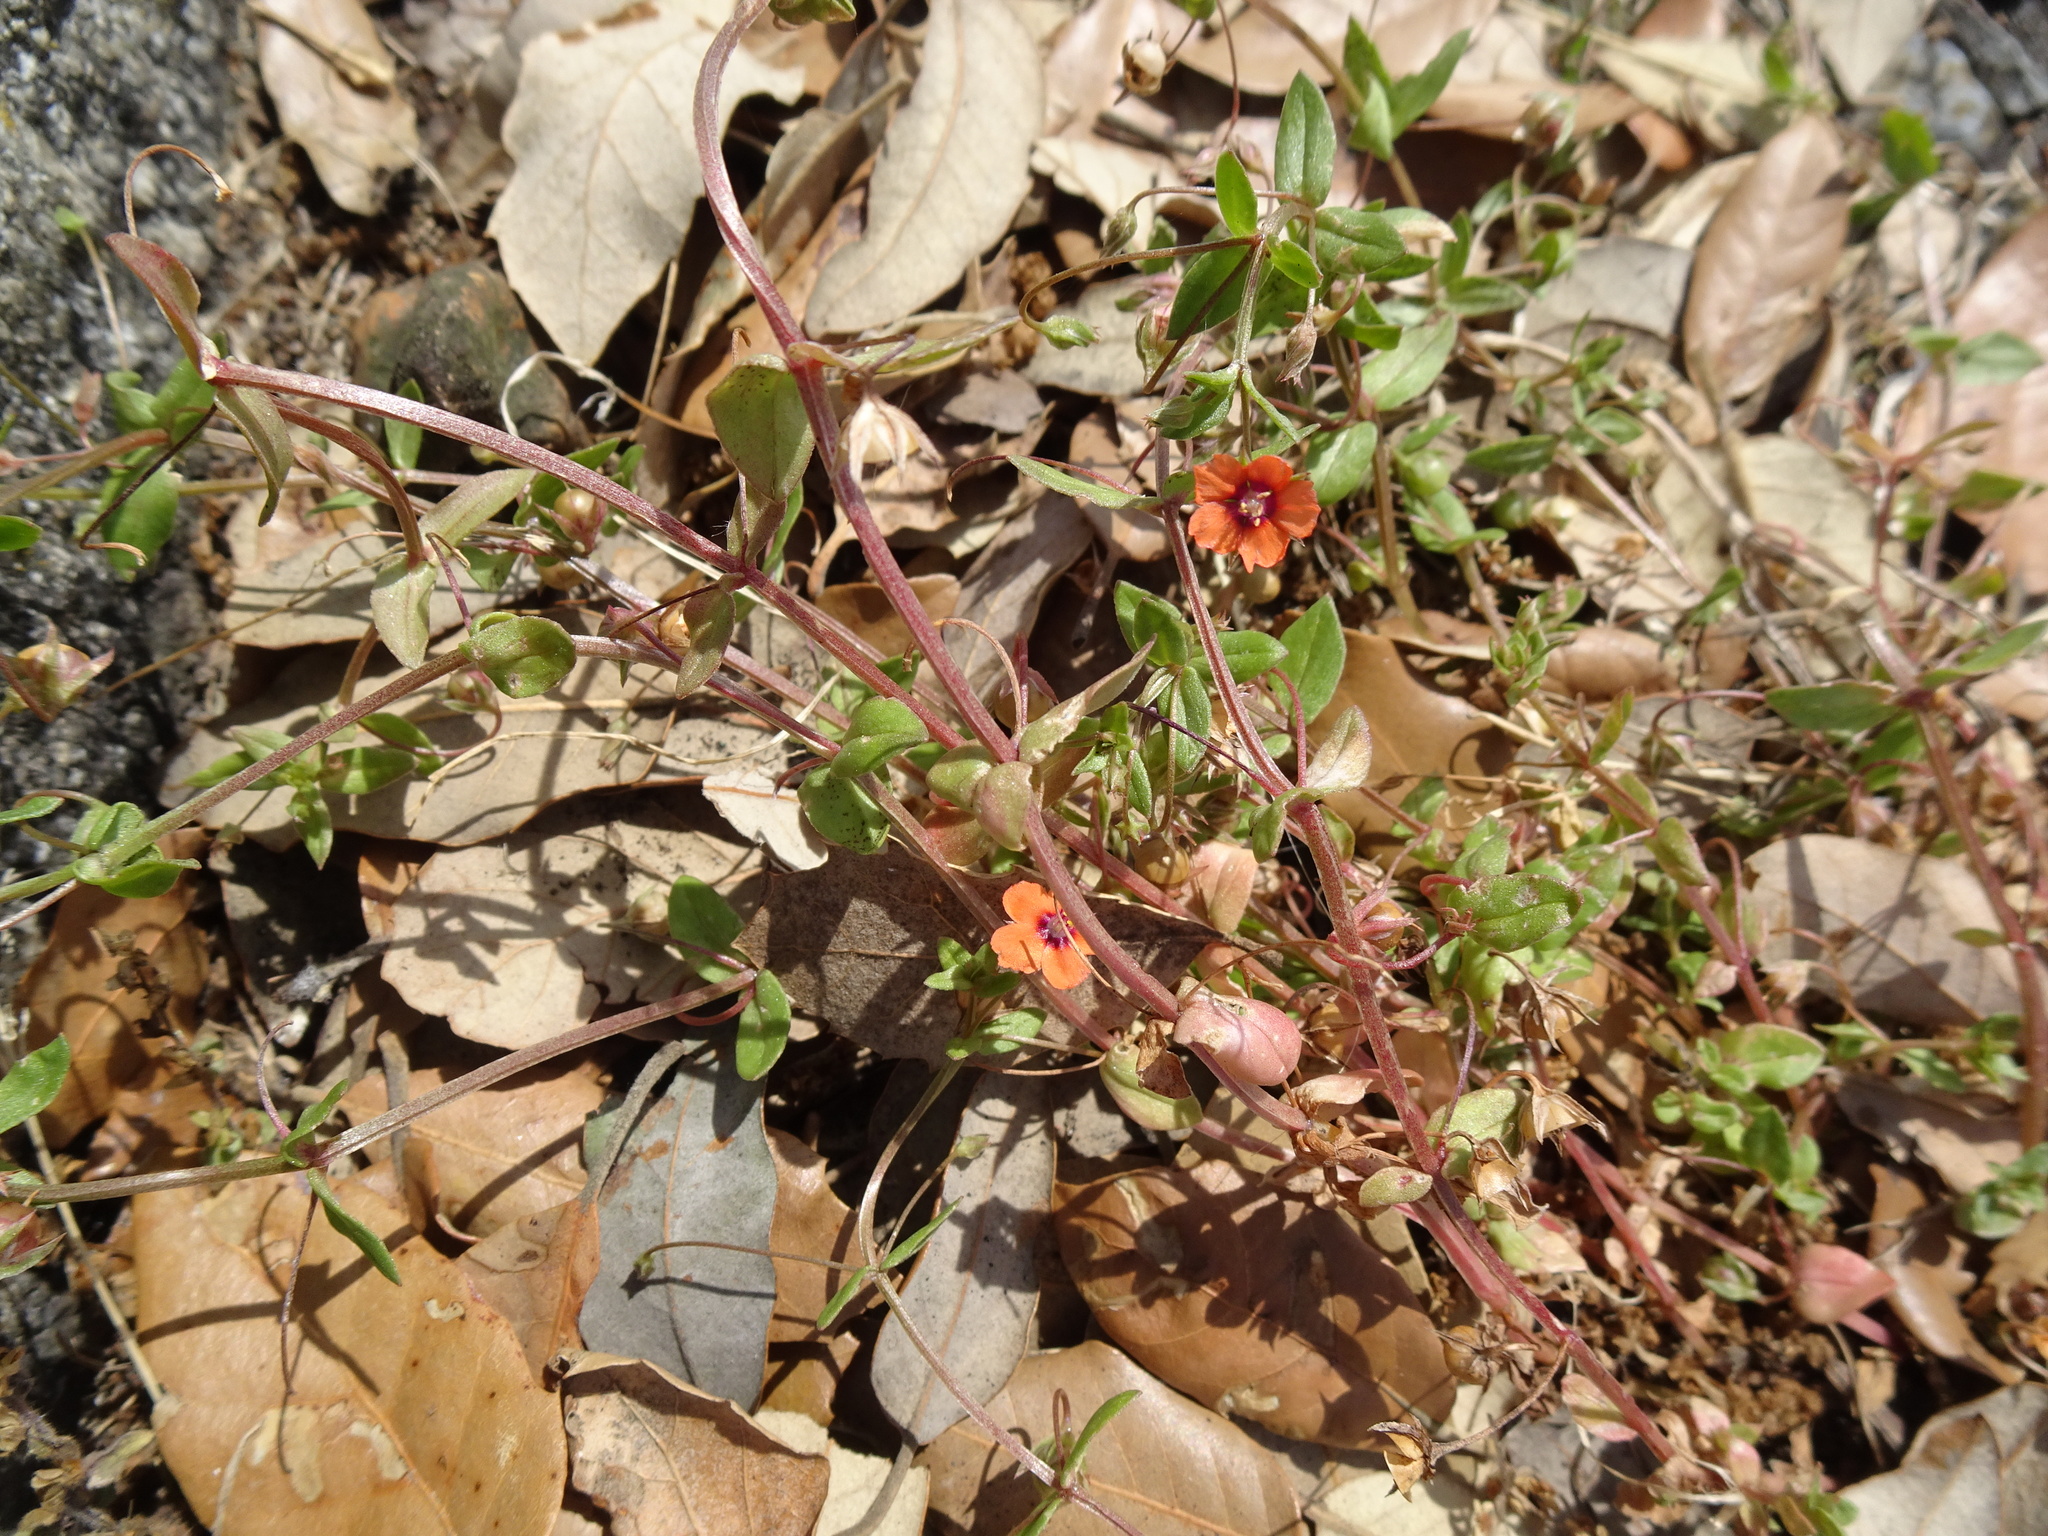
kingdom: Plantae
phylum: Tracheophyta
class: Magnoliopsida
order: Ericales
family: Primulaceae
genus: Lysimachia
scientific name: Lysimachia arvensis
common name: Scarlet pimpernel
